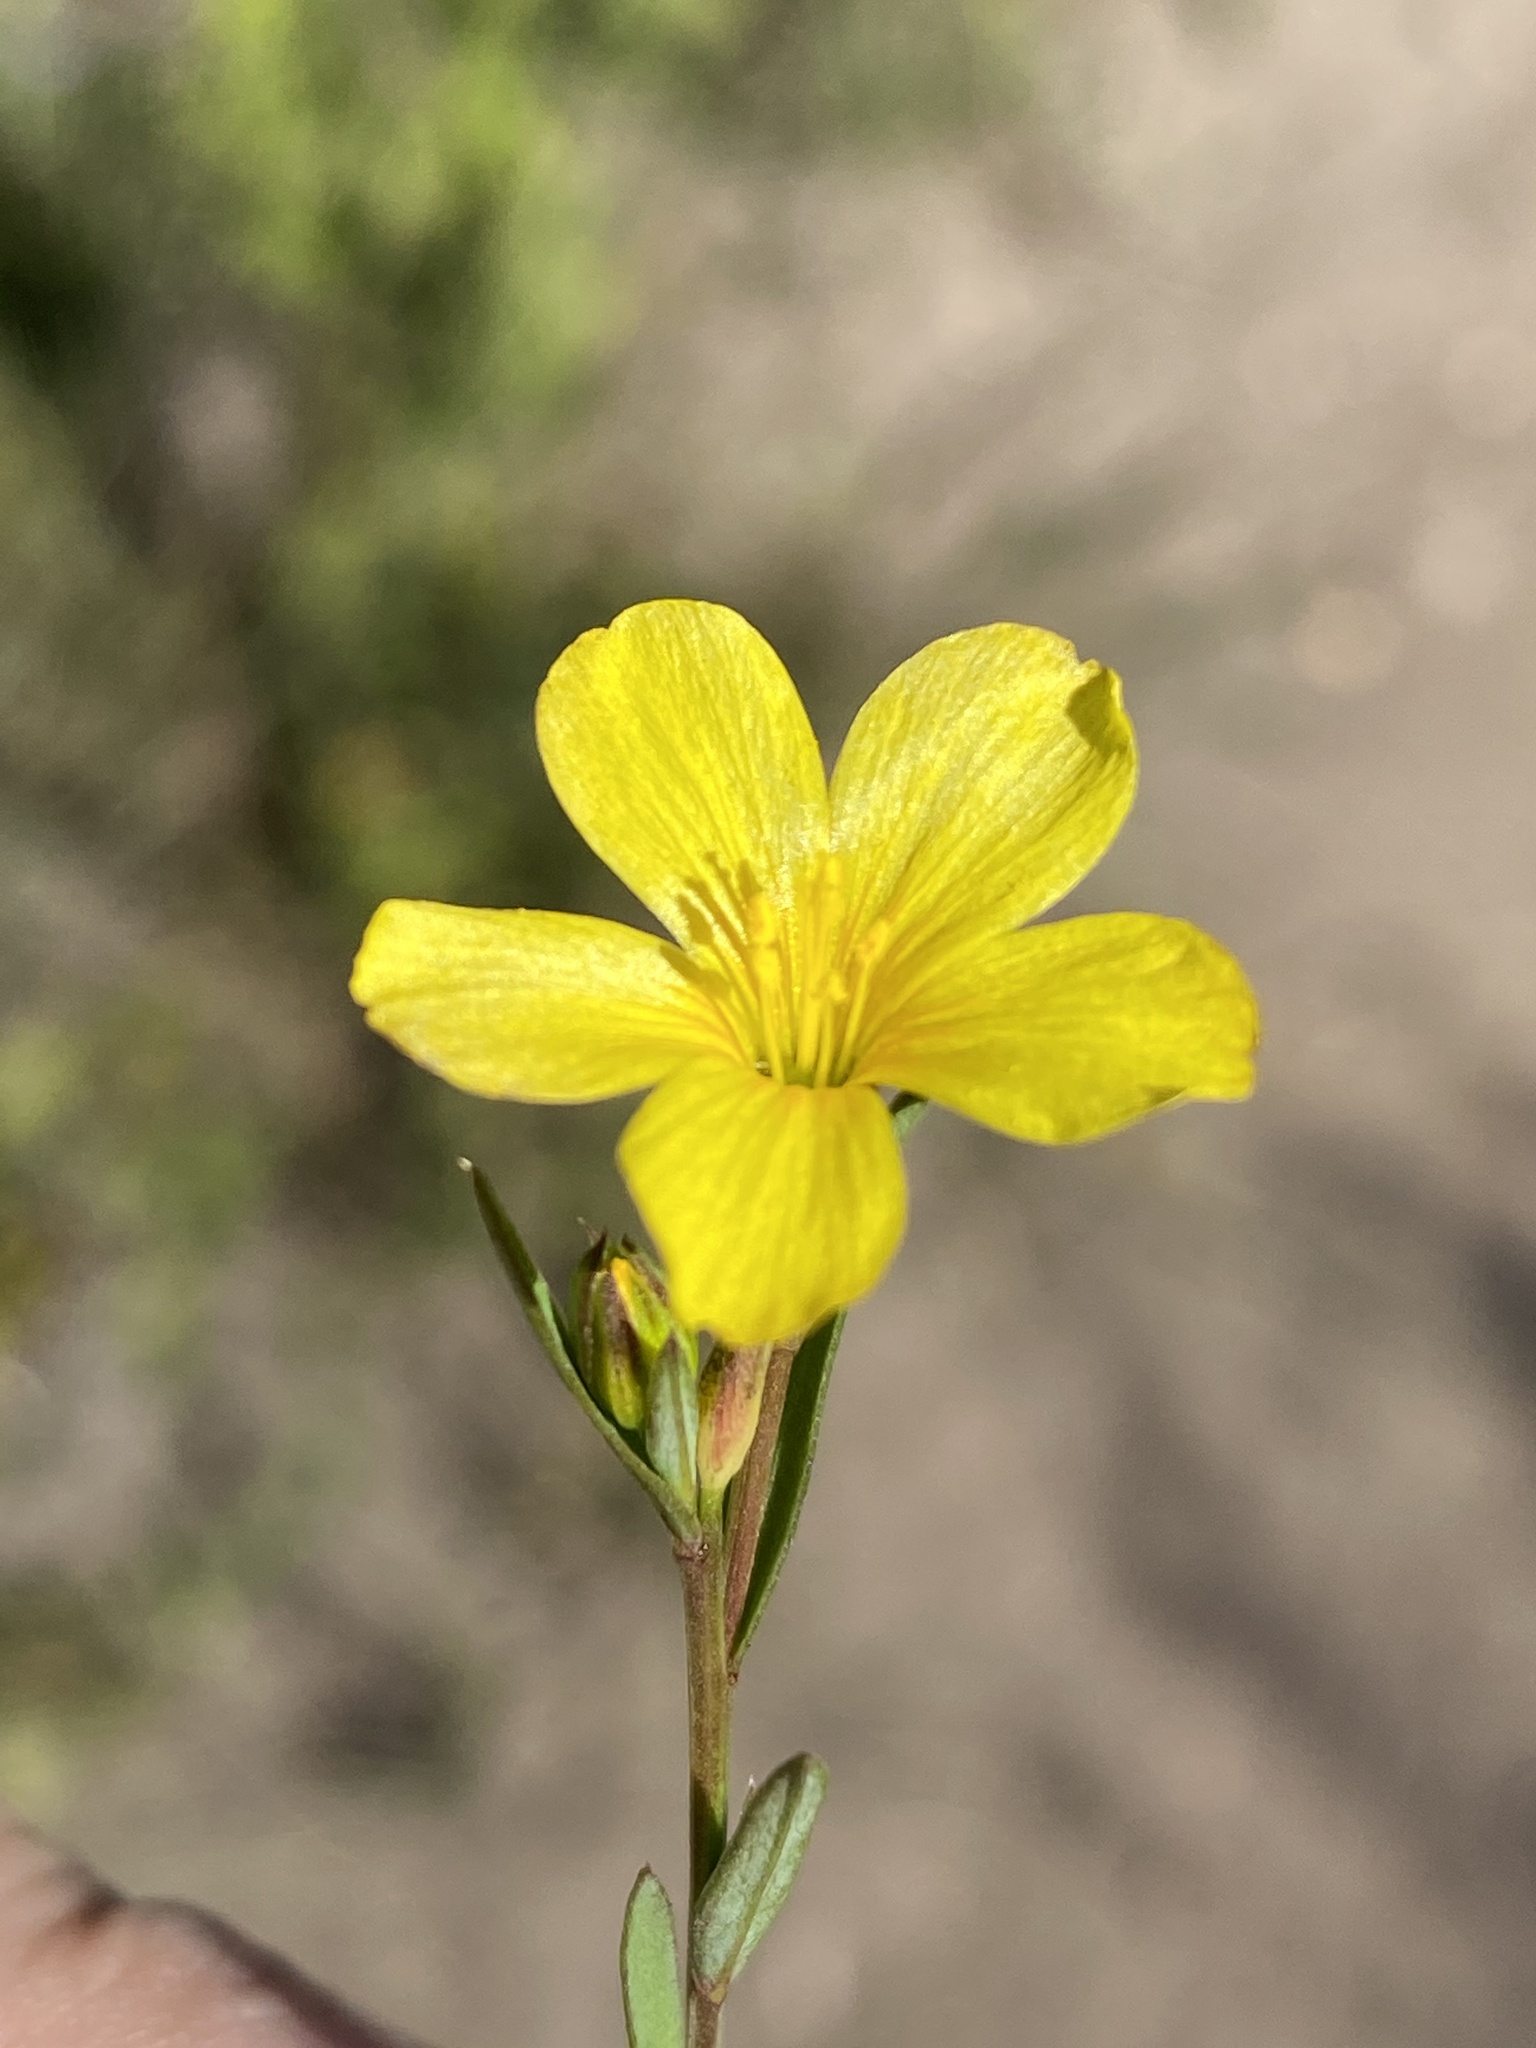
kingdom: Plantae
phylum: Tracheophyta
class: Magnoliopsida
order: Malpighiales
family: Linaceae
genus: Linum
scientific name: Linum africanum
